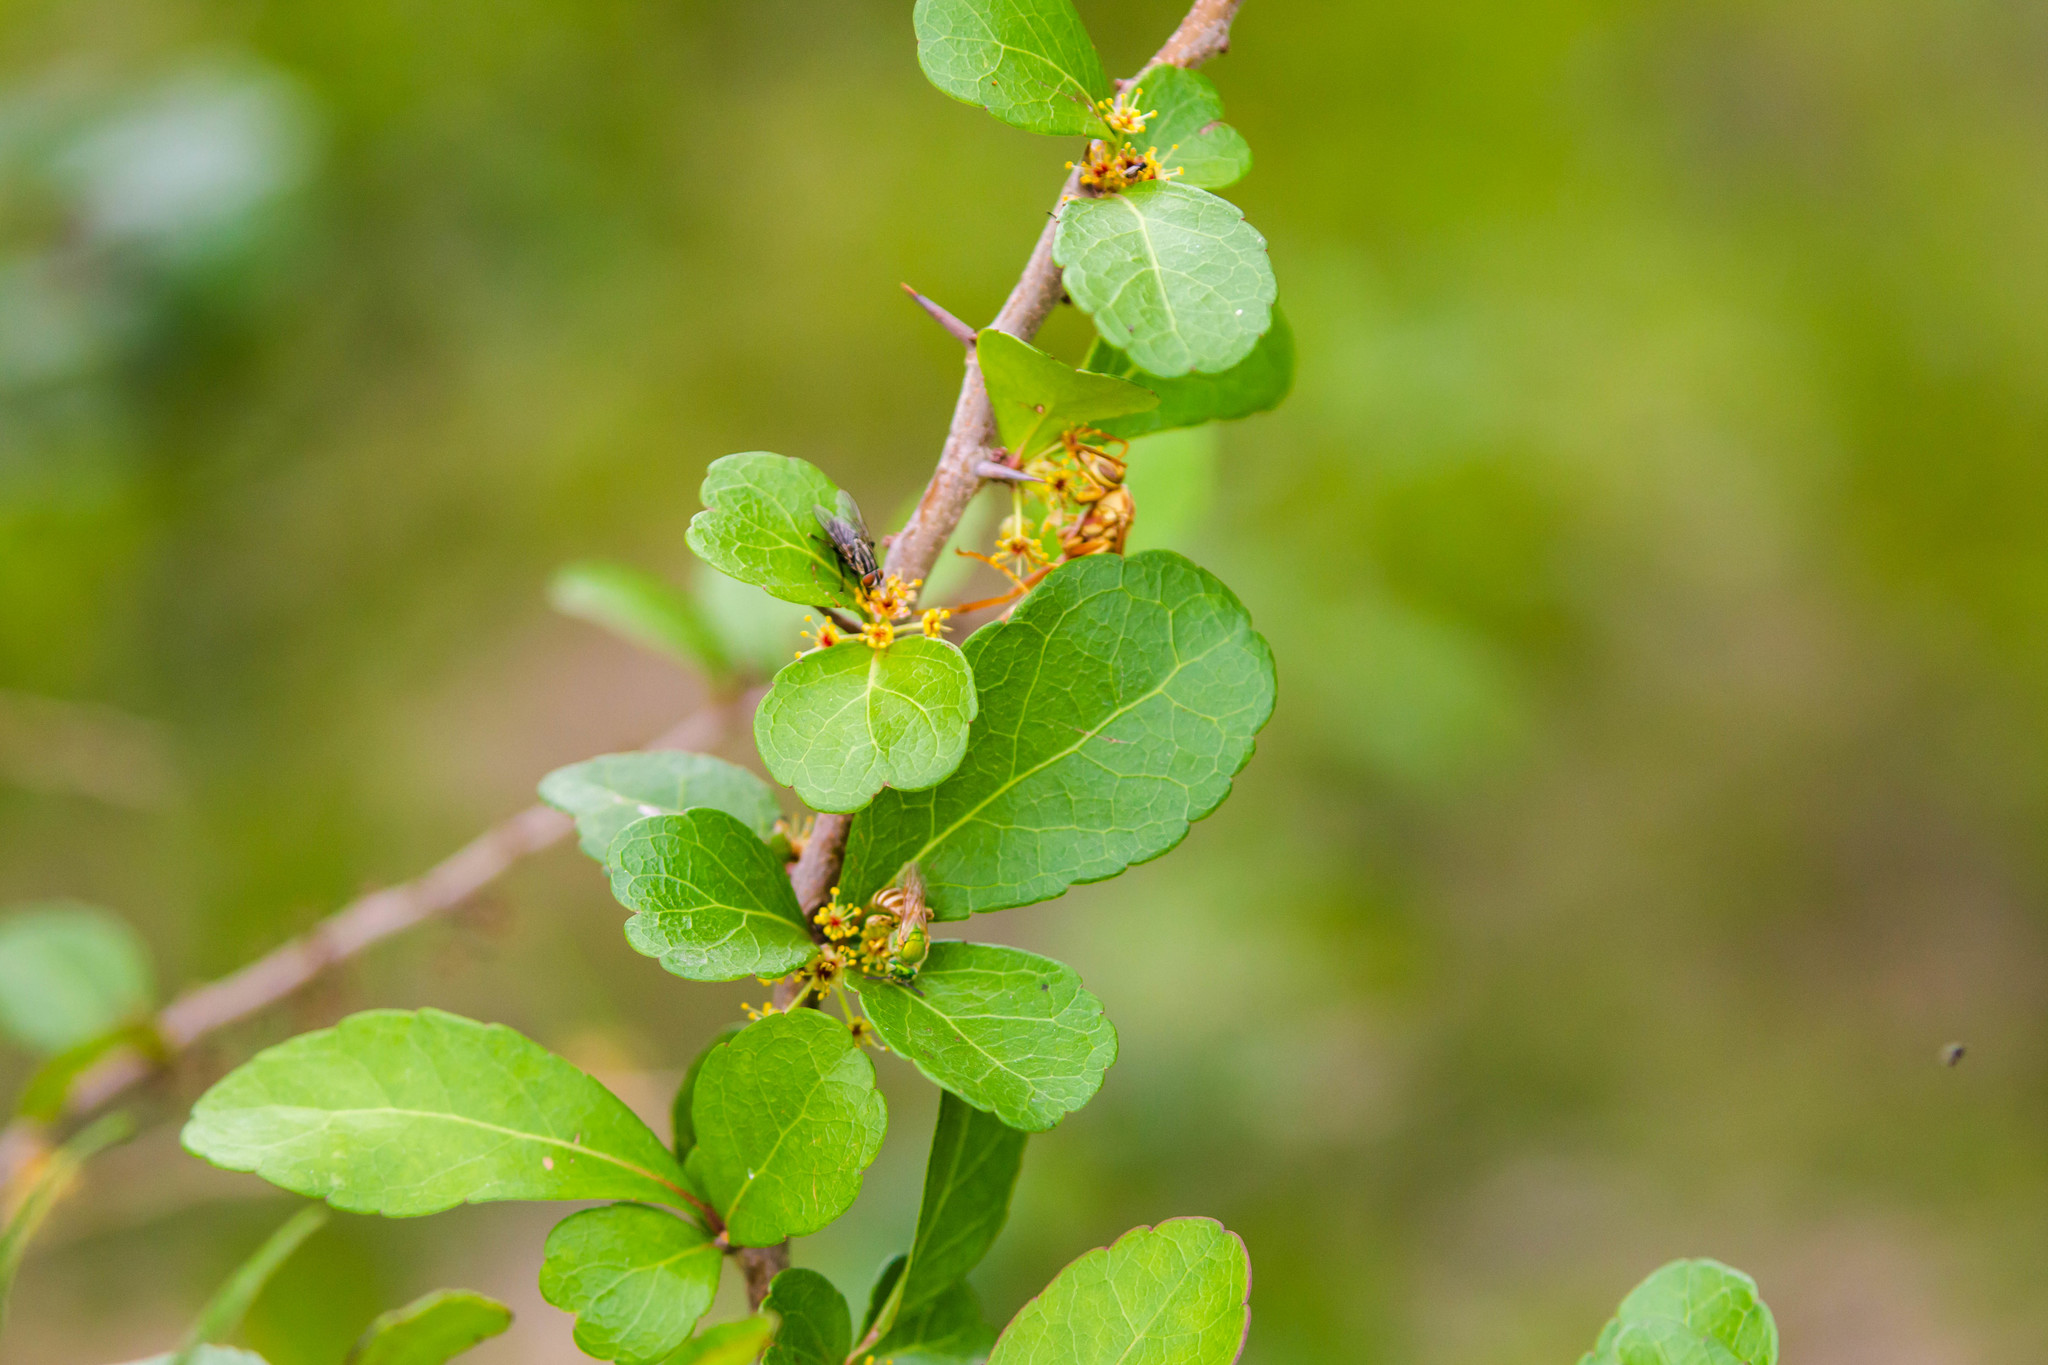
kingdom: Plantae
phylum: Tracheophyta
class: Magnoliopsida
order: Malpighiales
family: Salicaceae
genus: Xylosma
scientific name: Xylosma flexuosa
